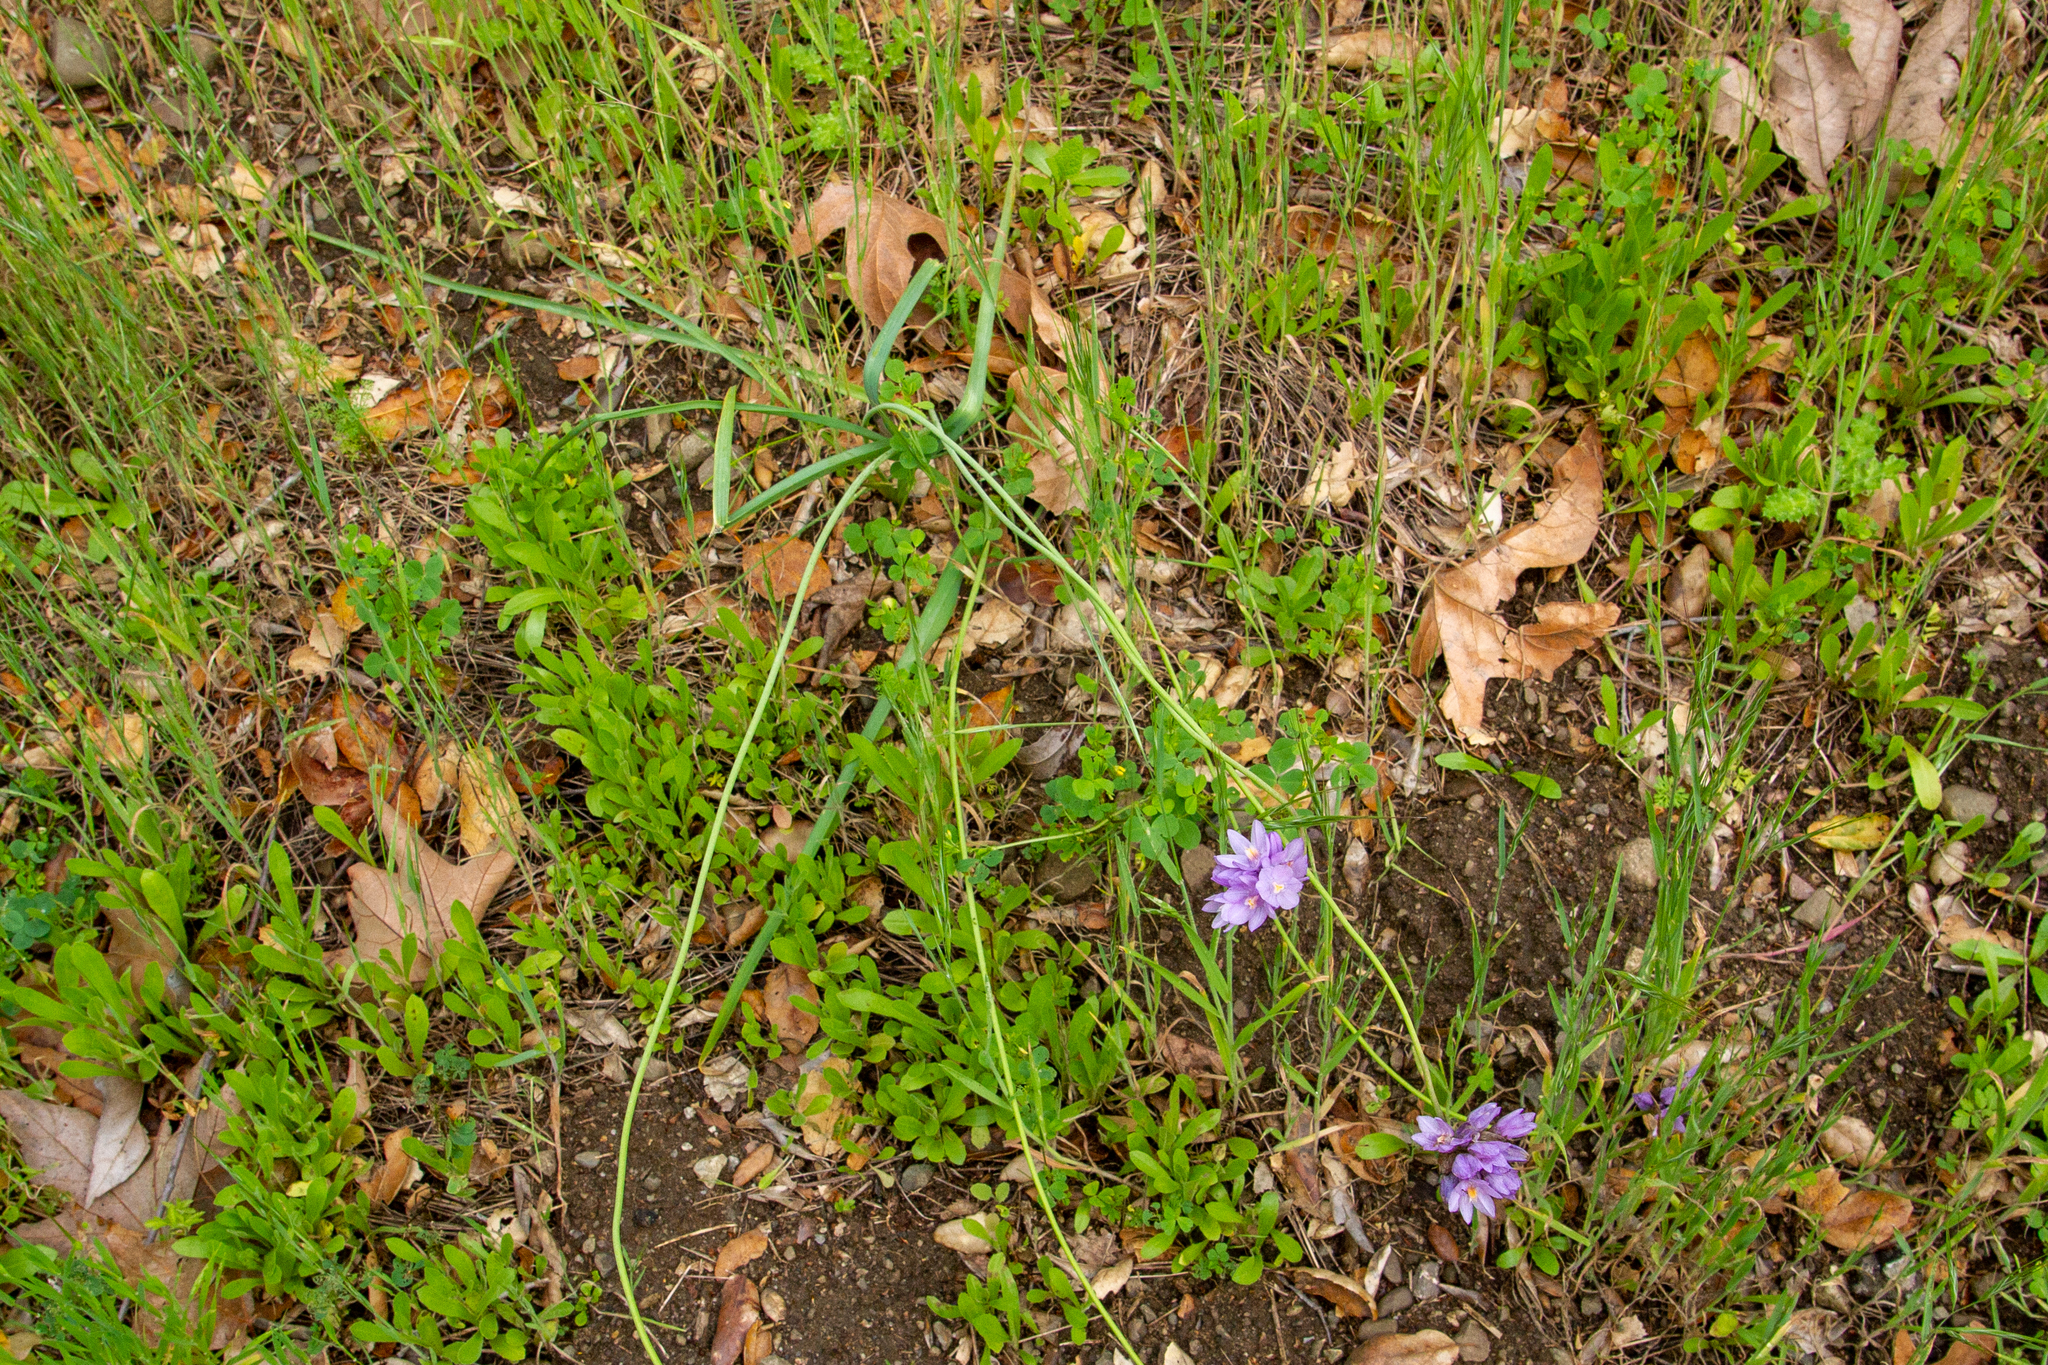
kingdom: Plantae
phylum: Tracheophyta
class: Liliopsida
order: Asparagales
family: Asparagaceae
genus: Dipterostemon
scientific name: Dipterostemon capitatus
